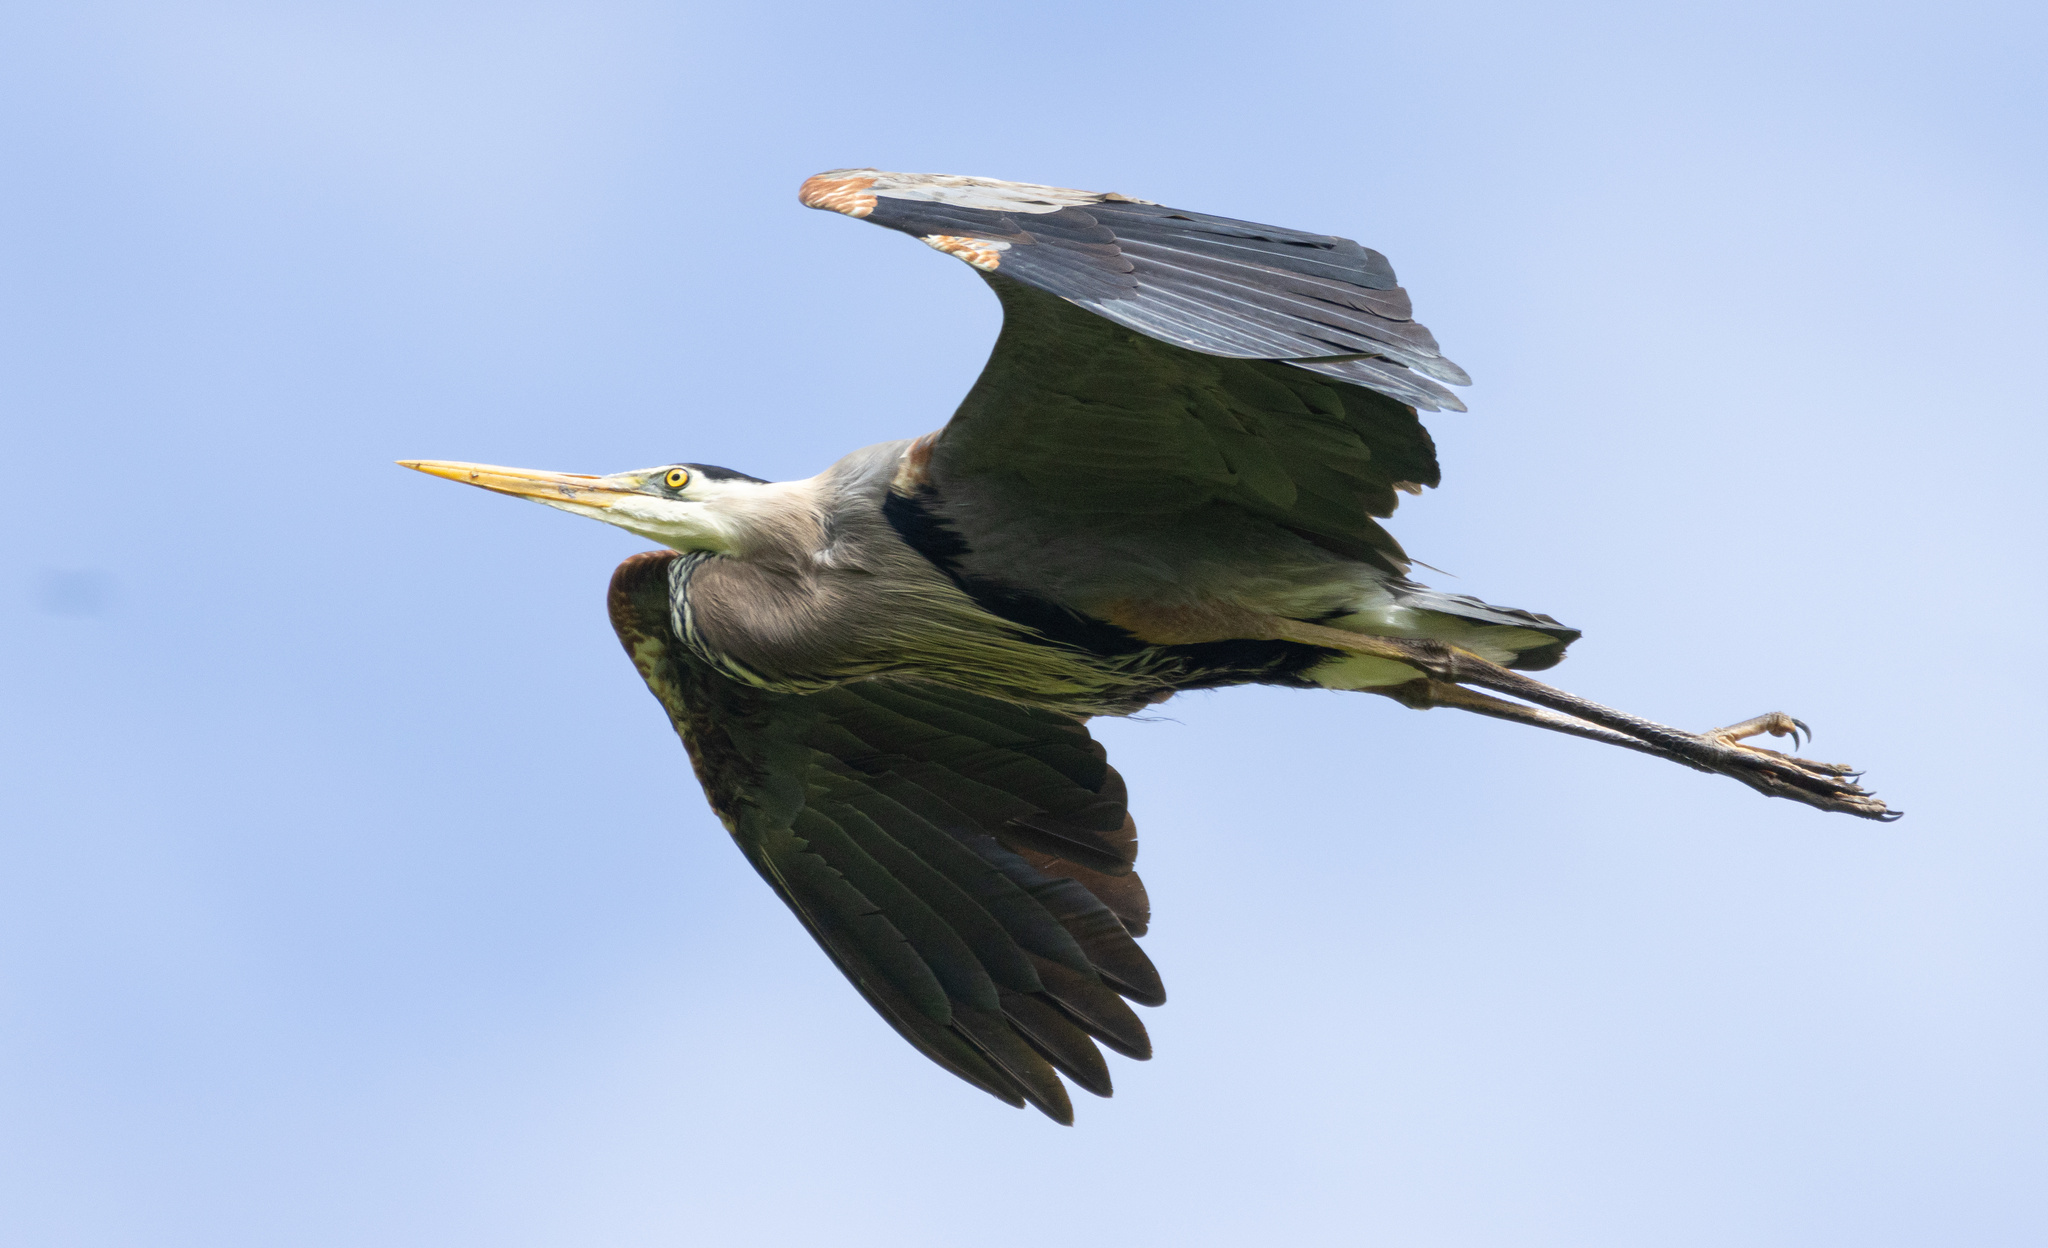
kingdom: Animalia
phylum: Chordata
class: Aves
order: Pelecaniformes
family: Ardeidae
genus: Ardea
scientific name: Ardea herodias
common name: Great blue heron
